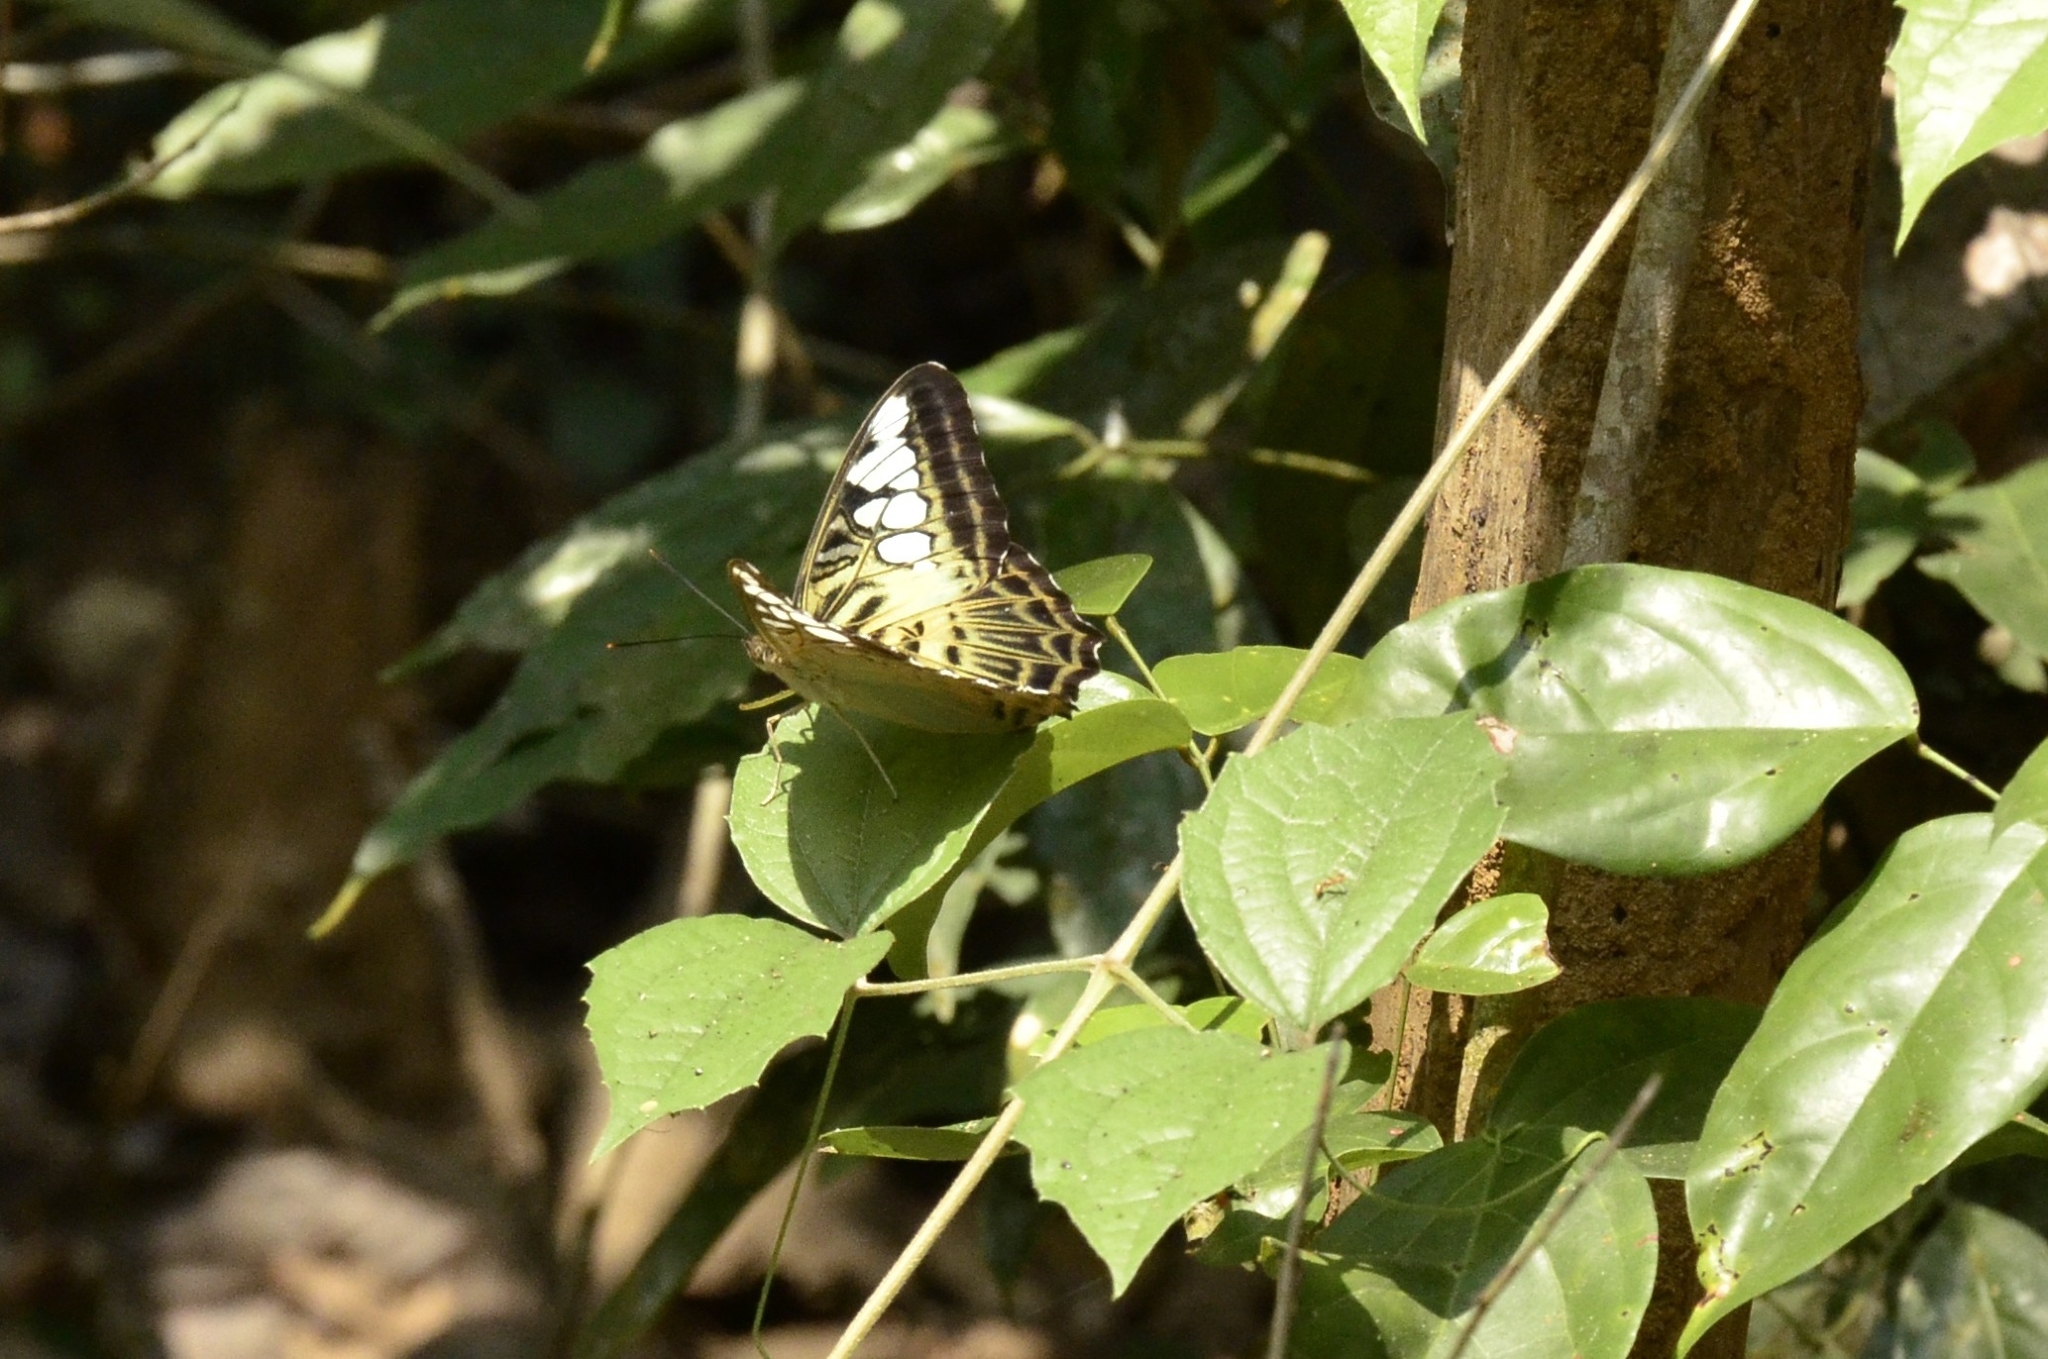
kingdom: Animalia
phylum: Arthropoda
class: Insecta
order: Lepidoptera
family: Nymphalidae
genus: Kallima
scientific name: Kallima sylvia
